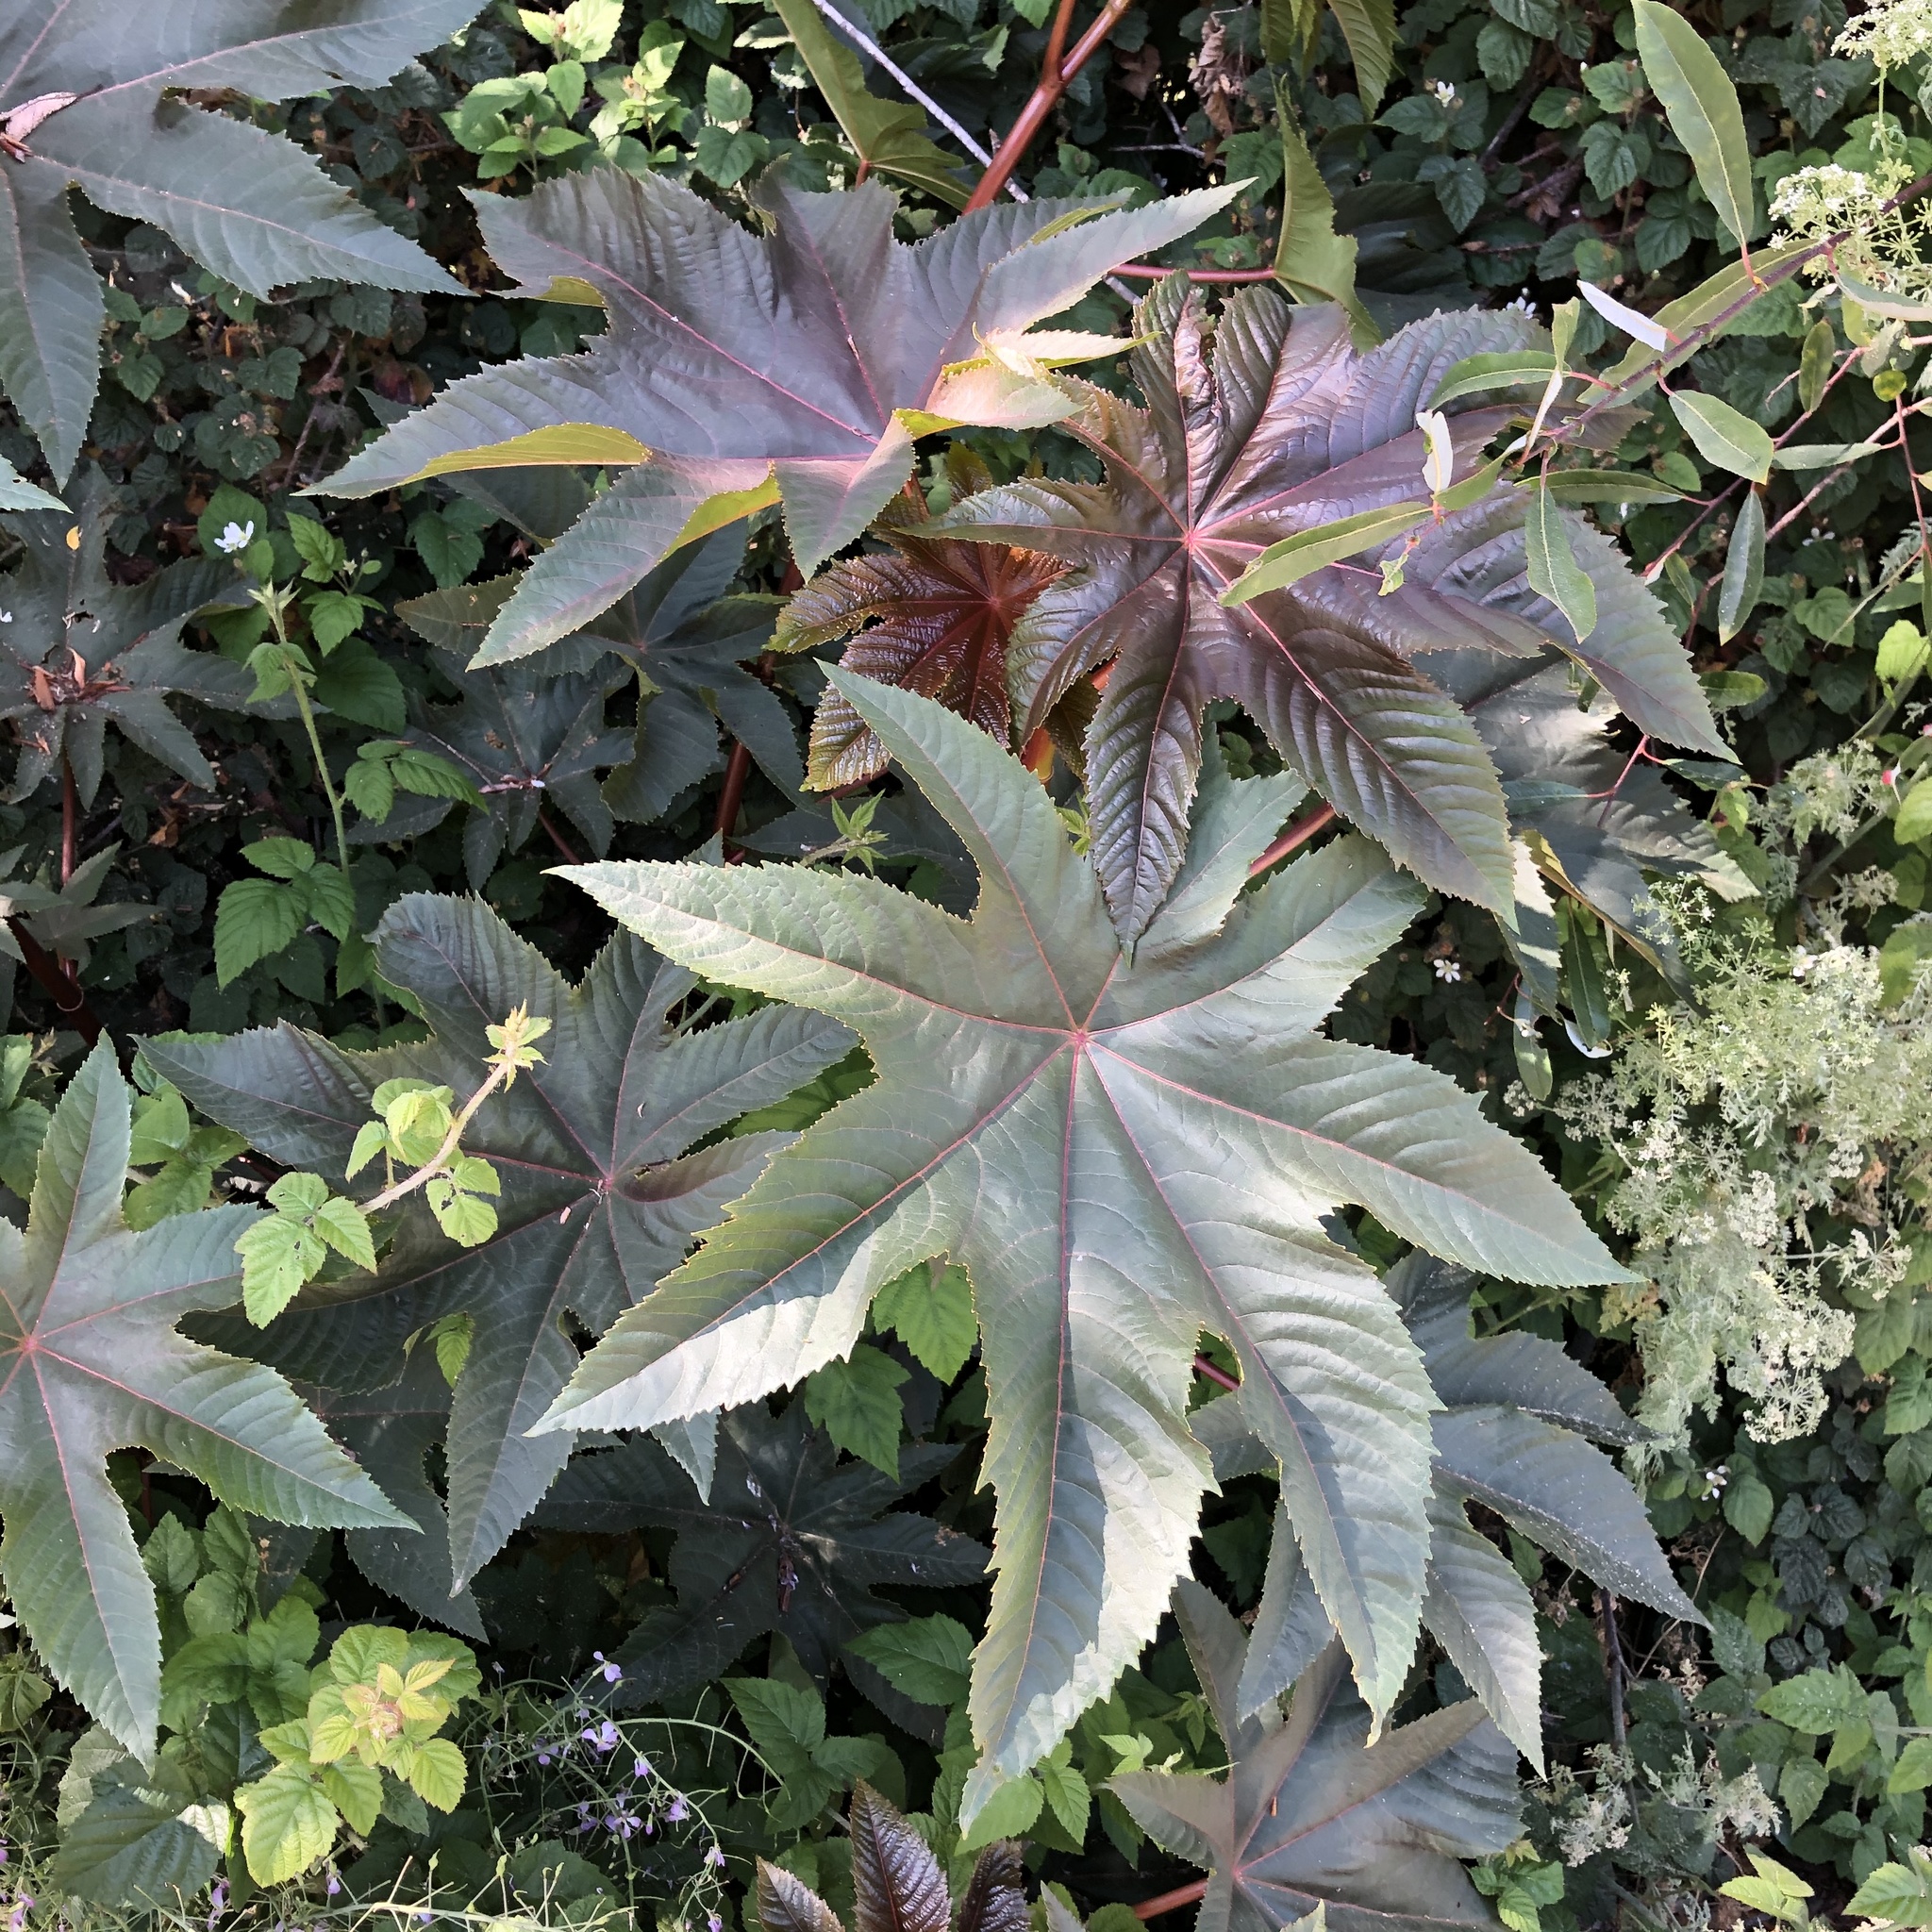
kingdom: Plantae
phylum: Tracheophyta
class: Magnoliopsida
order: Malpighiales
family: Euphorbiaceae
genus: Ricinus
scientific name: Ricinus communis
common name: Castor-oil-plant
